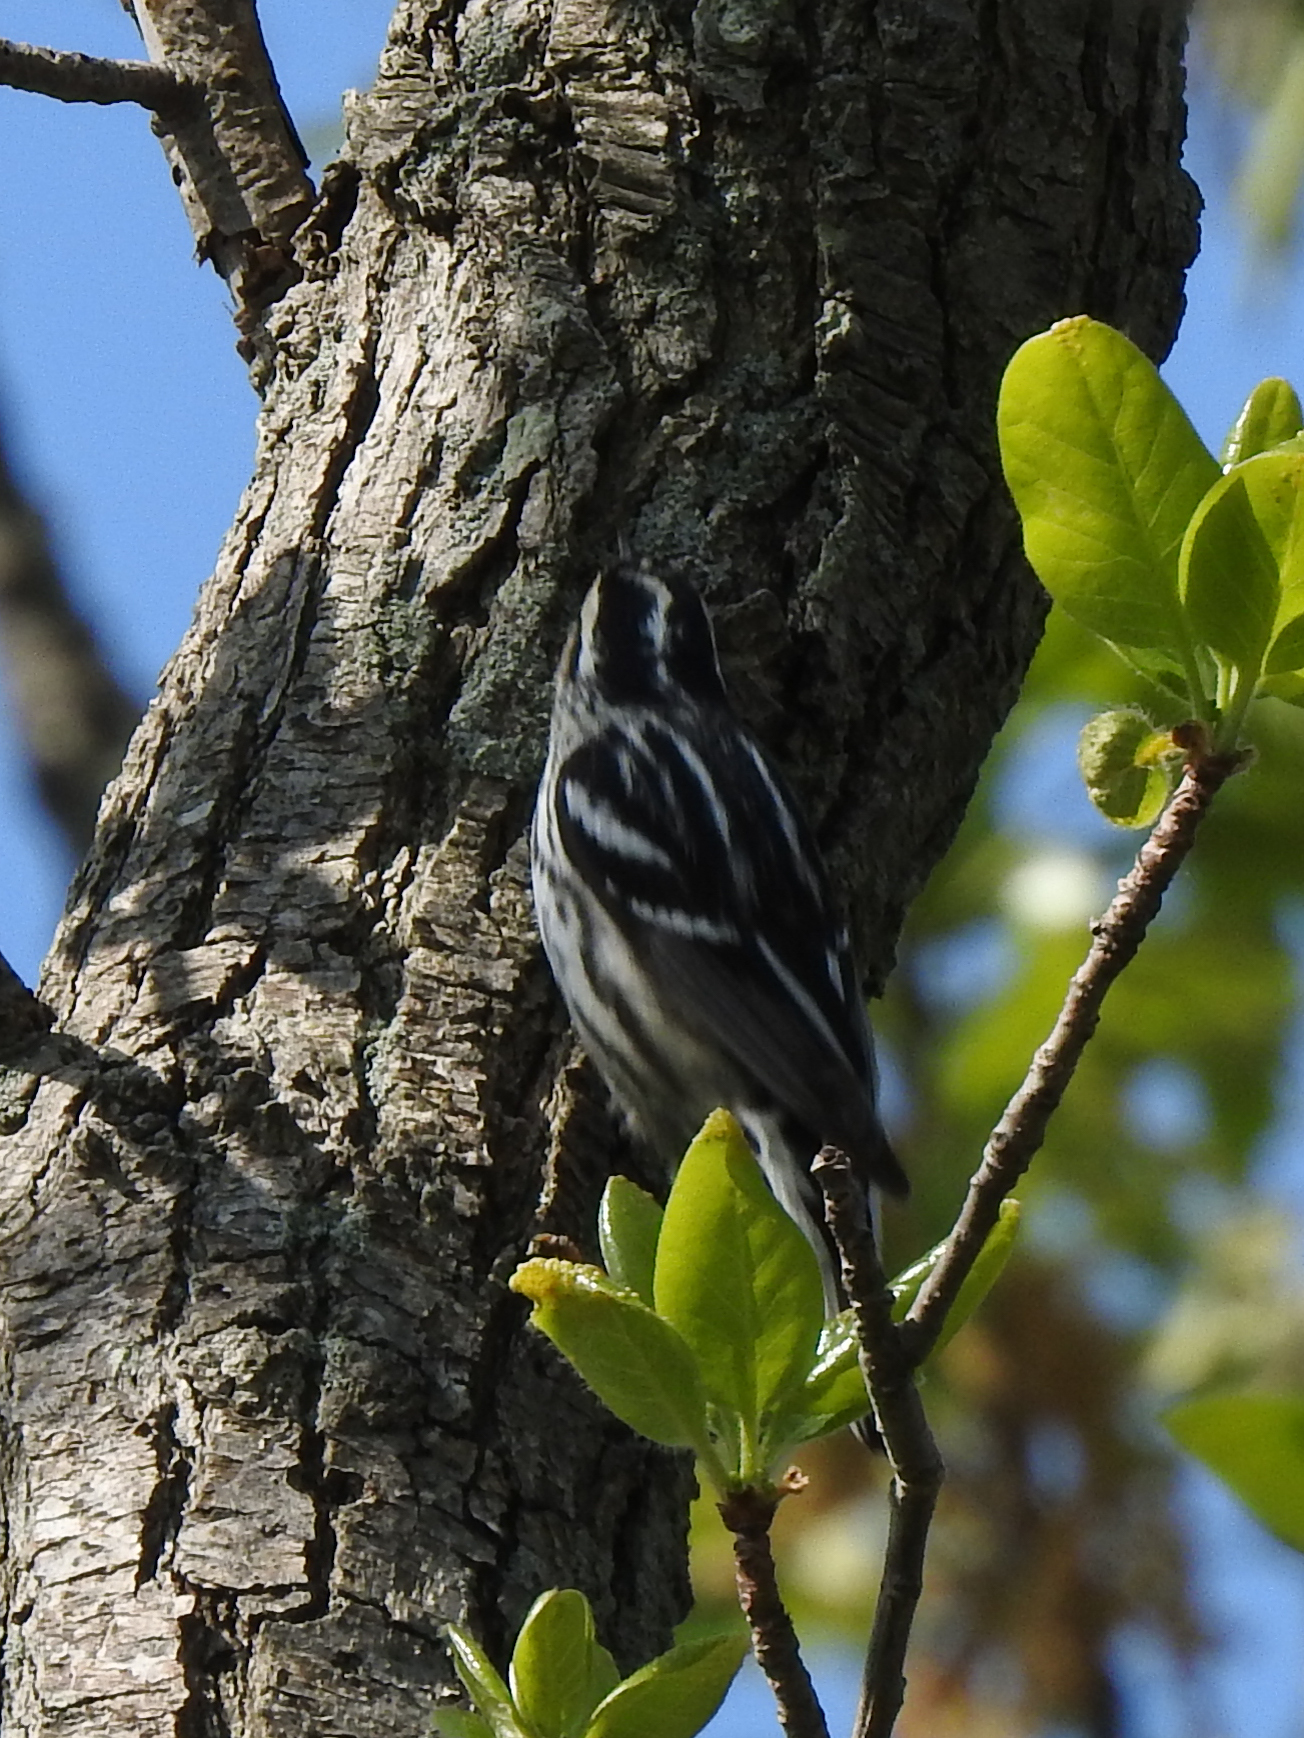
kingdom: Animalia
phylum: Chordata
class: Aves
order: Passeriformes
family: Parulidae
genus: Mniotilta
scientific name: Mniotilta varia
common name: Black-and-white warbler
